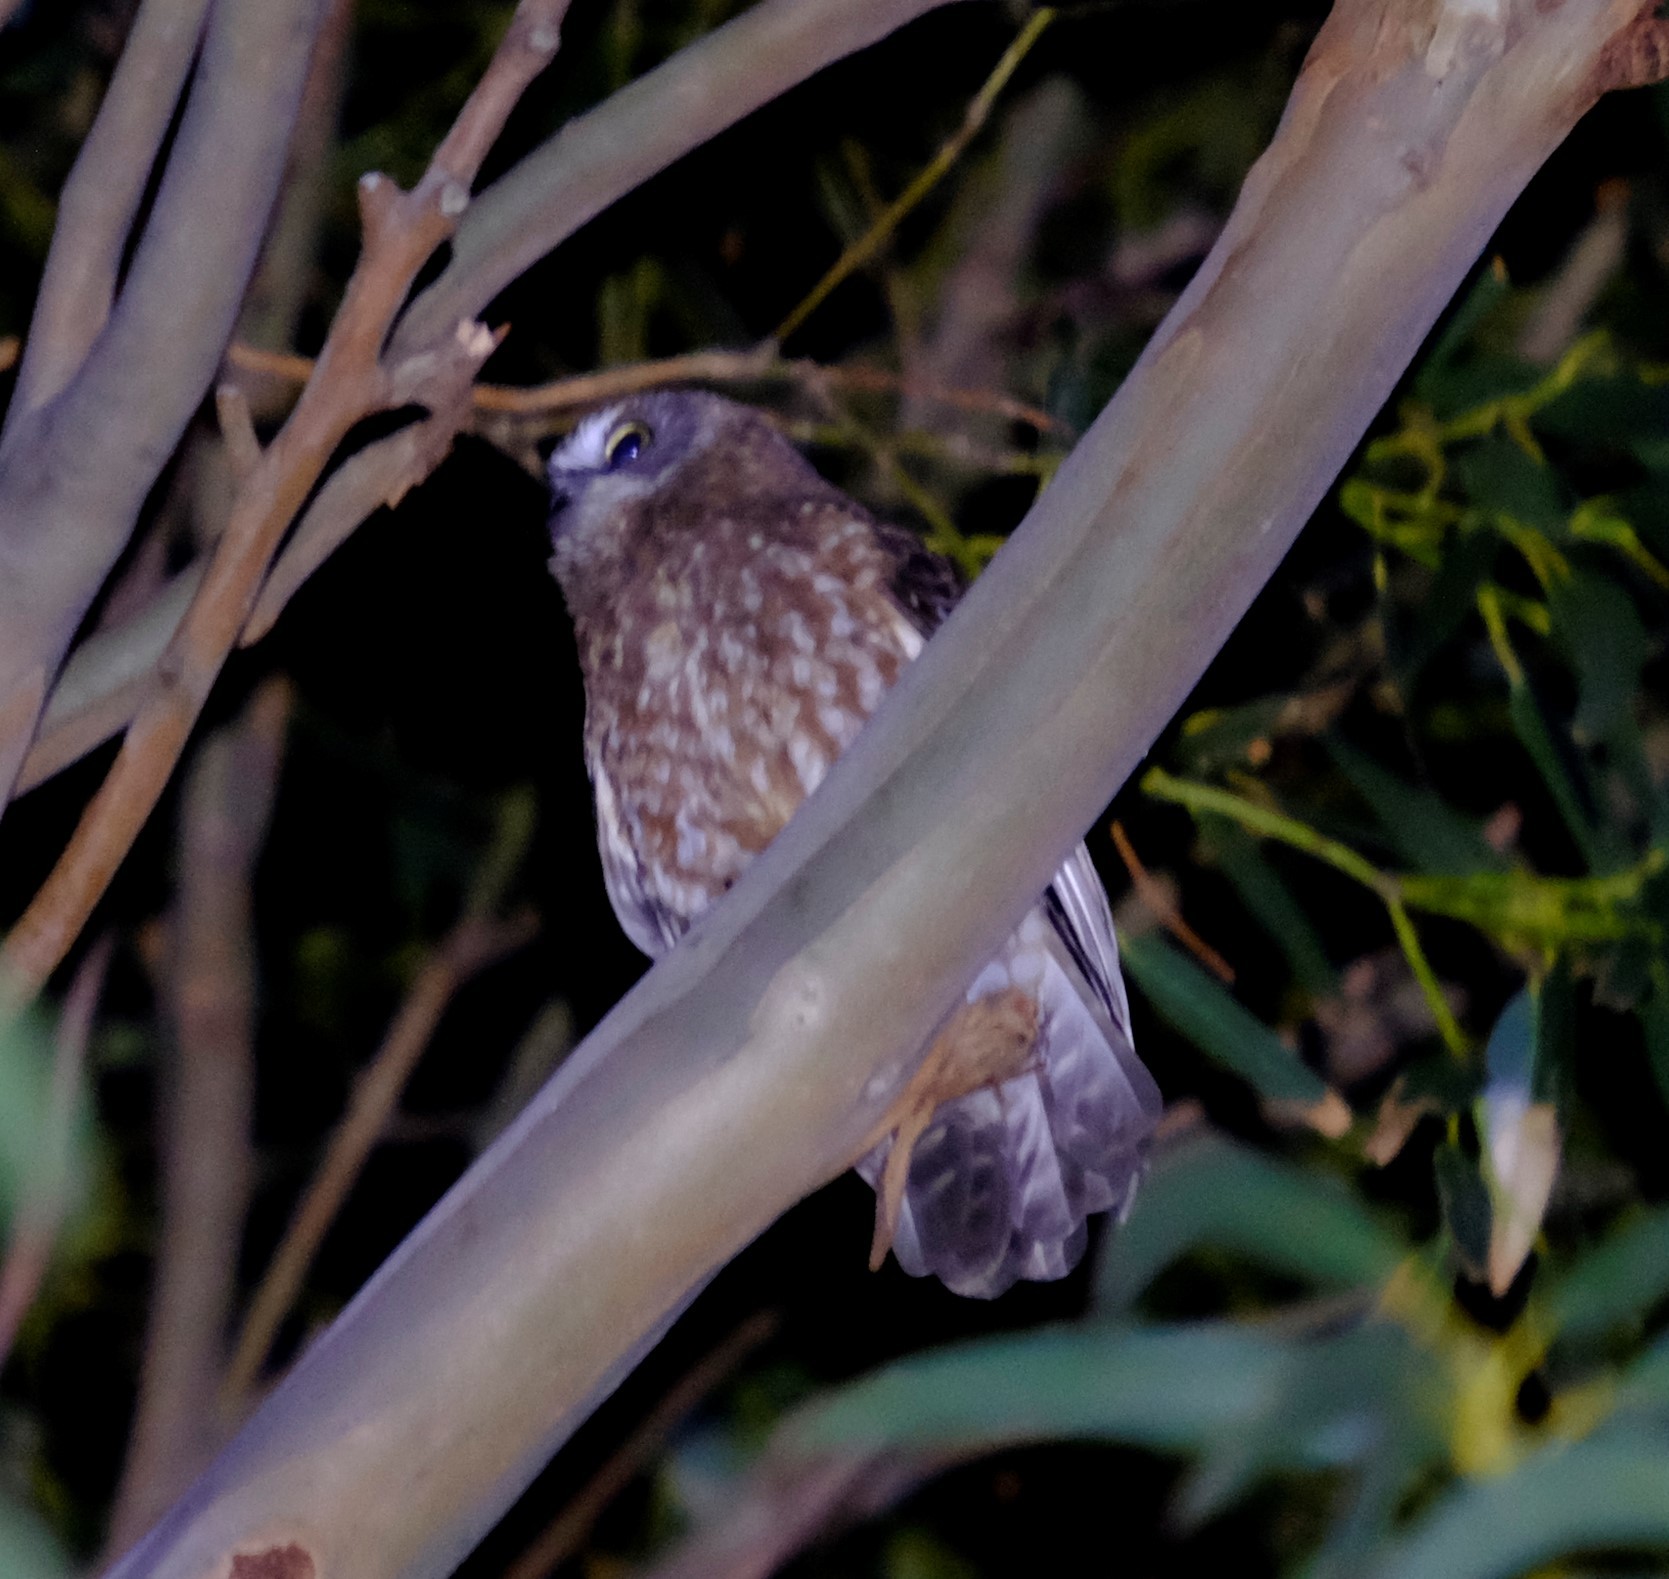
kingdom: Animalia
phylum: Chordata
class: Aves
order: Strigiformes
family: Strigidae
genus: Ninox
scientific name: Ninox boobook
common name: Southern boobook
